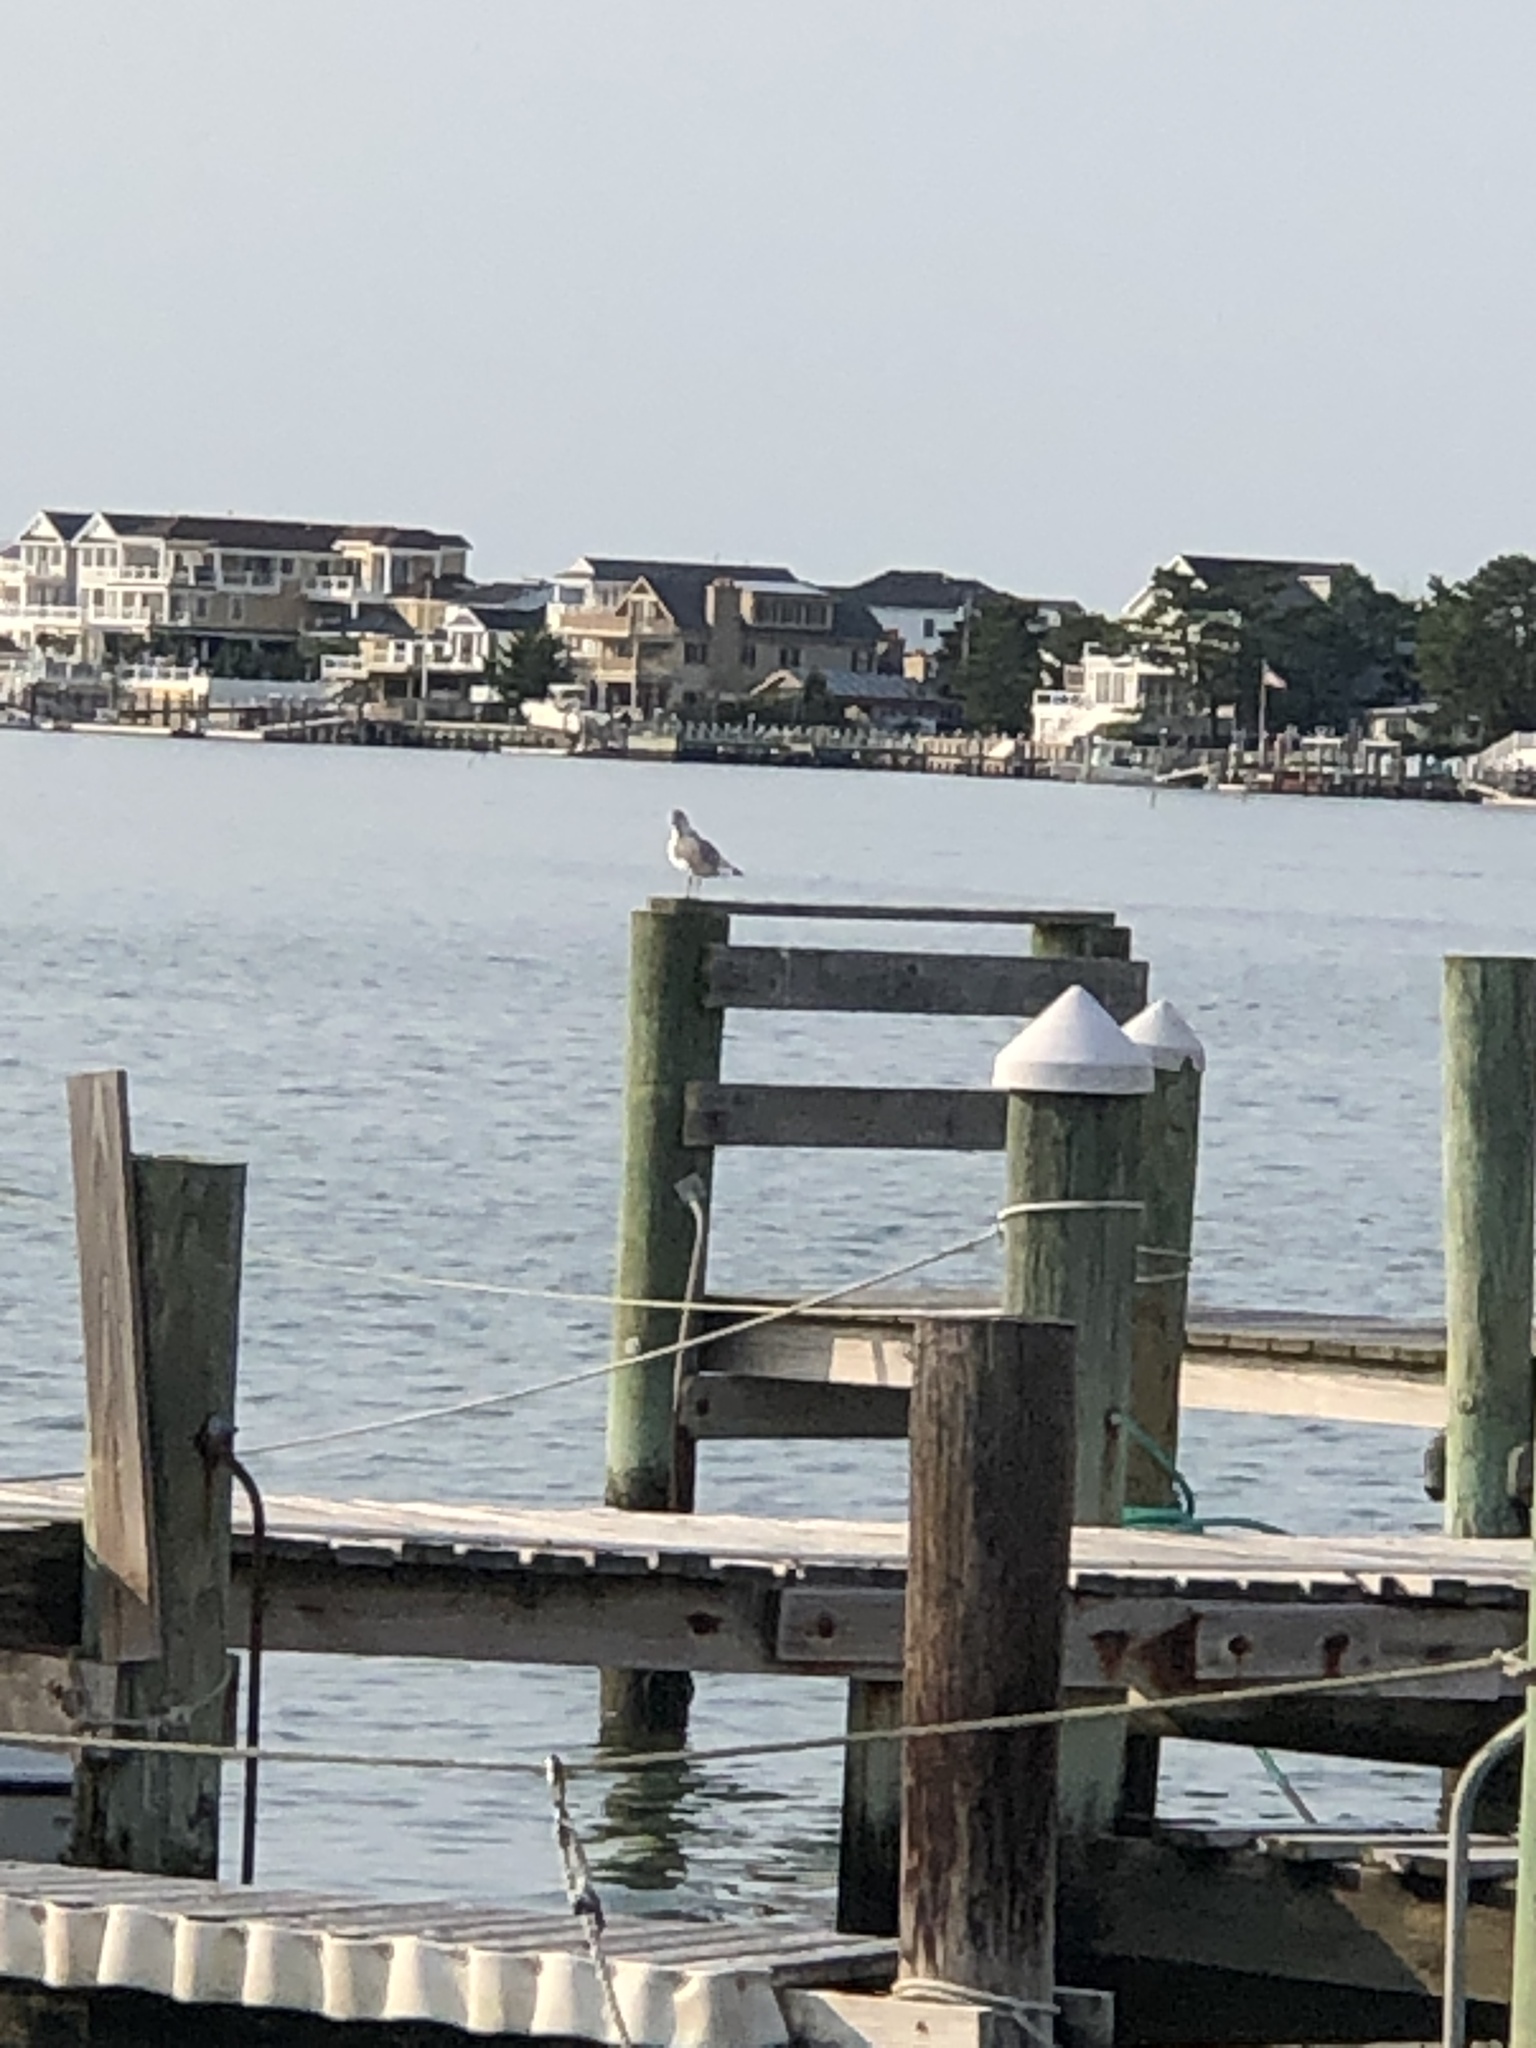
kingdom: Animalia
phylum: Chordata
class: Aves
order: Suliformes
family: Phalacrocoracidae
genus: Phalacrocorax
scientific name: Phalacrocorax auritus
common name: Double-crested cormorant
